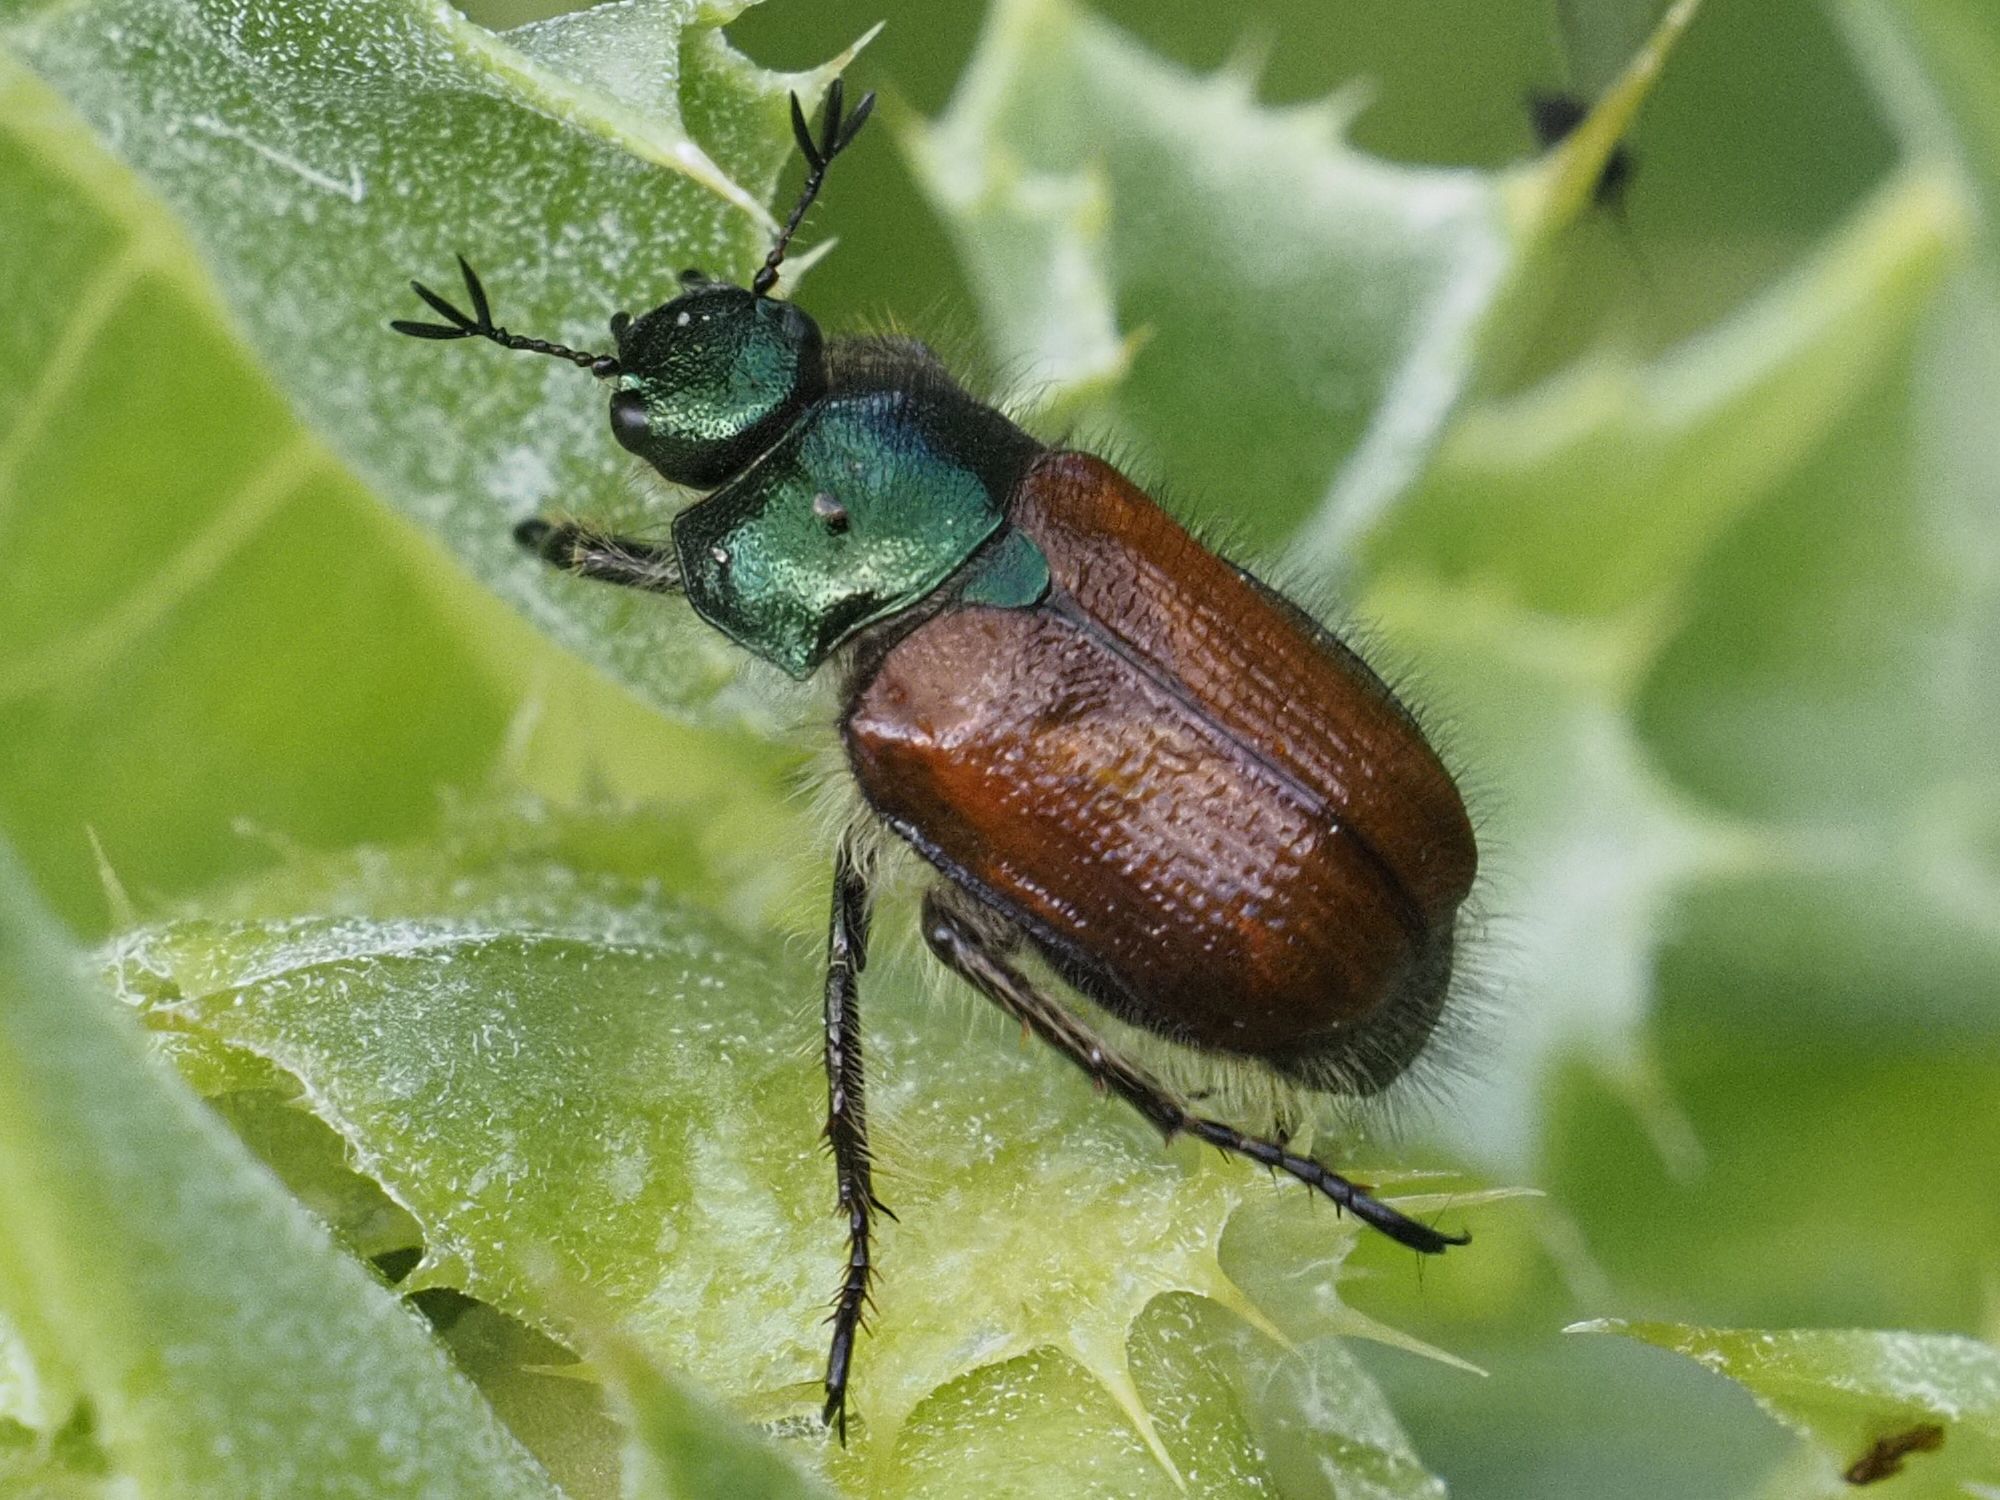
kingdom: Animalia
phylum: Arthropoda
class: Insecta
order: Coleoptera
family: Scarabaeidae
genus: Phyllopertha
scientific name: Phyllopertha horticola
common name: Garden chafer
